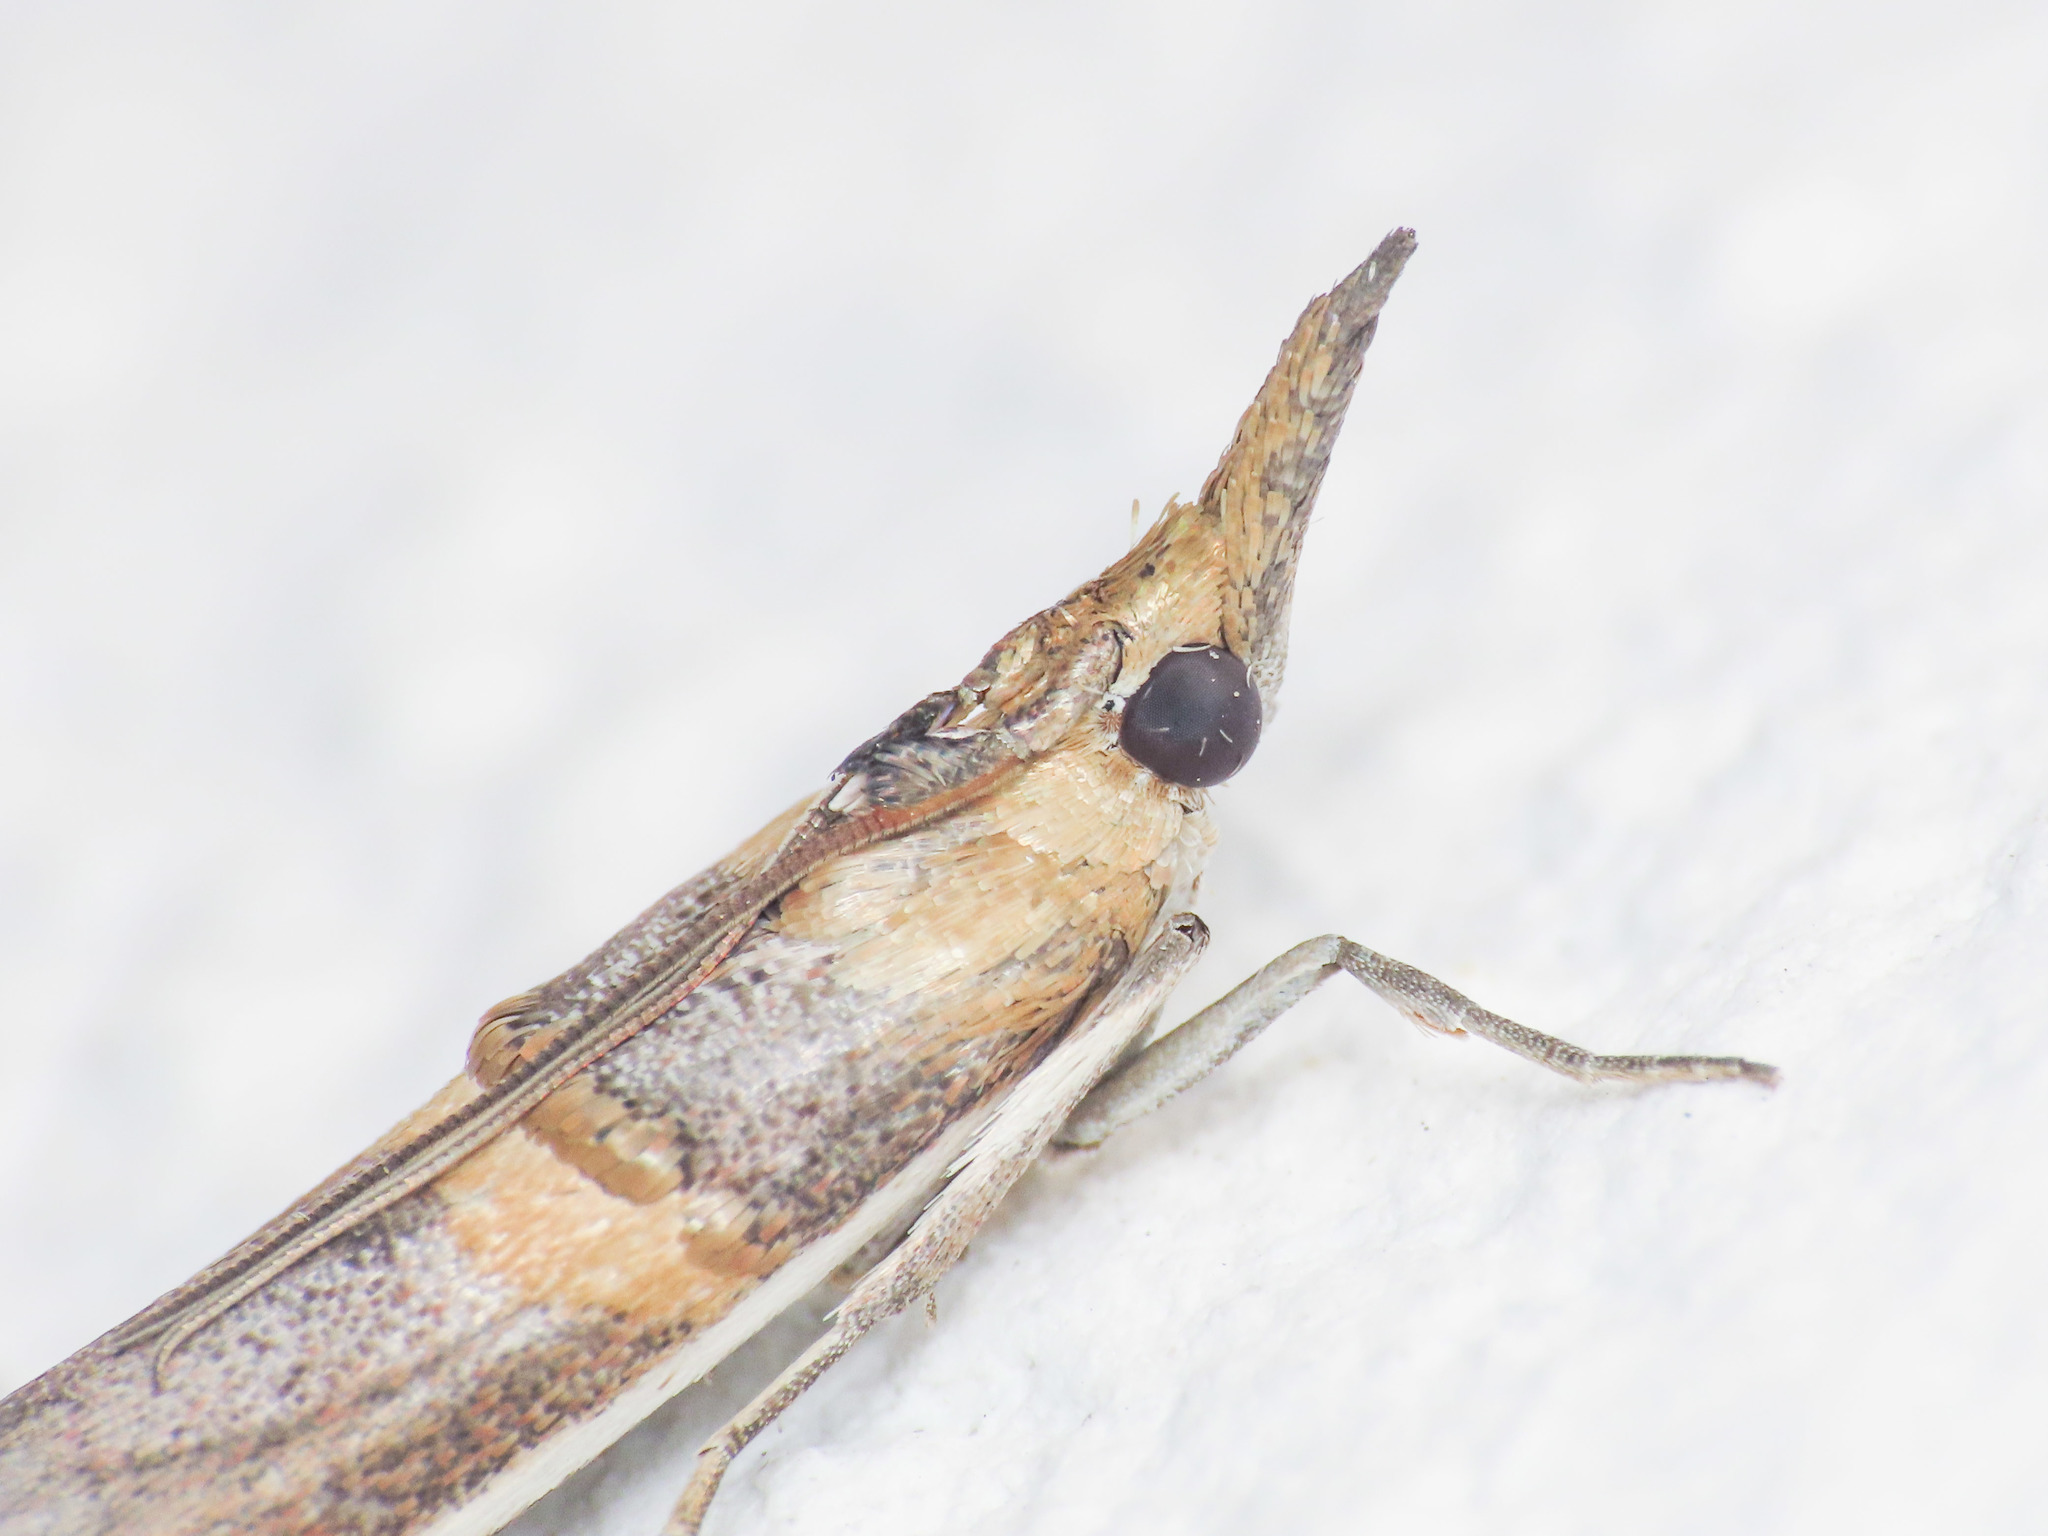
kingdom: Animalia
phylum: Arthropoda
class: Insecta
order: Lepidoptera
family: Pyralidae
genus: Etiella
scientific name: Etiella zinckenella
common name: Gold-banded etiella moth
